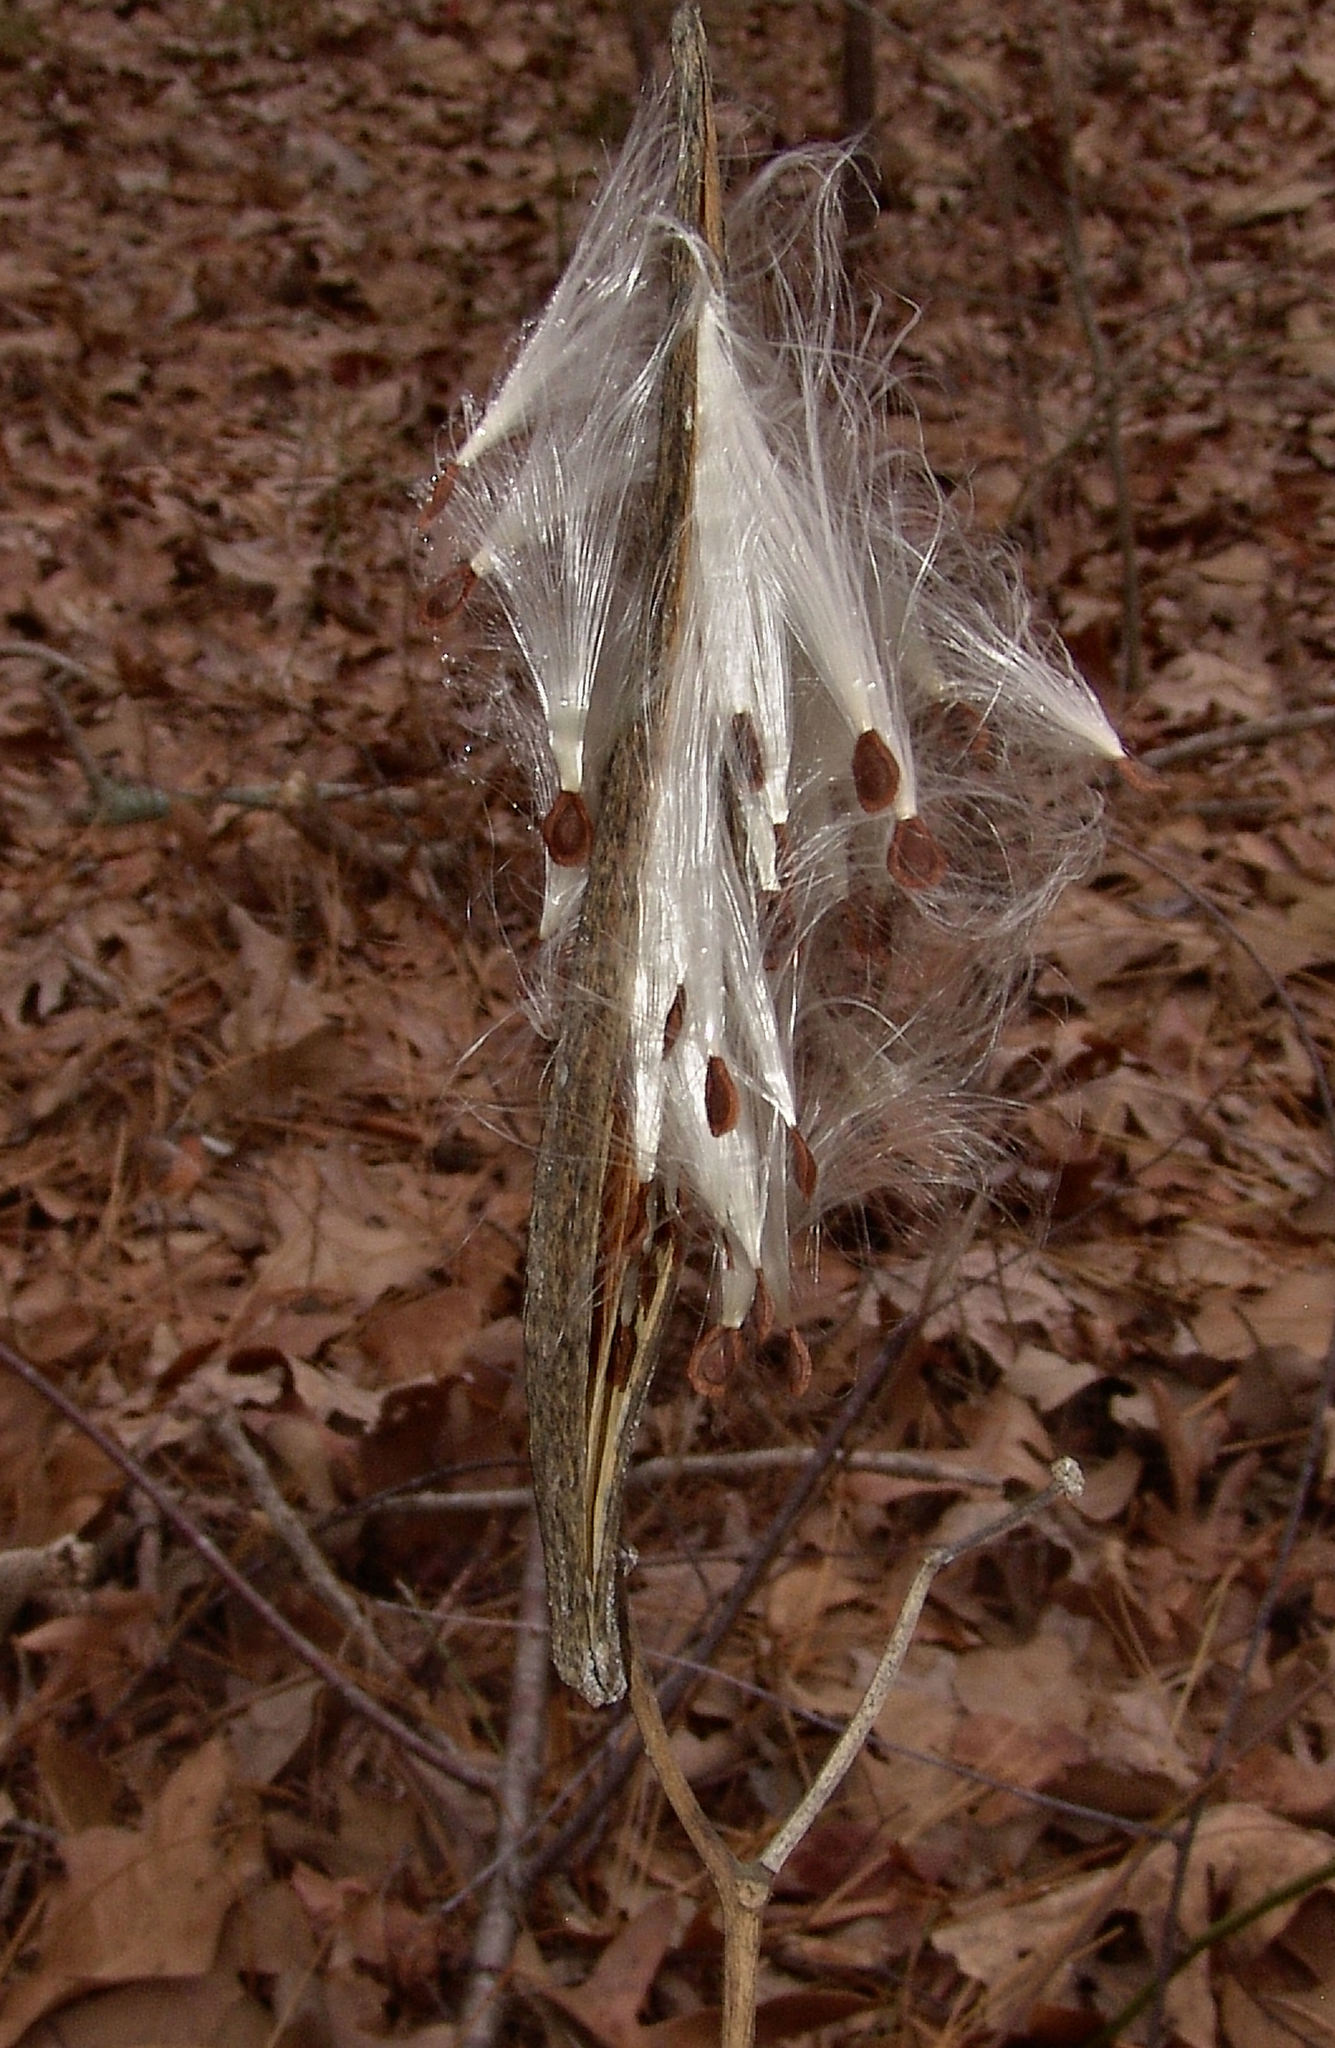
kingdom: Plantae
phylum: Tracheophyta
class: Magnoliopsida
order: Gentianales
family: Apocynaceae
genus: Asclepias
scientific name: Asclepias variegata
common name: Variegated milkweed
